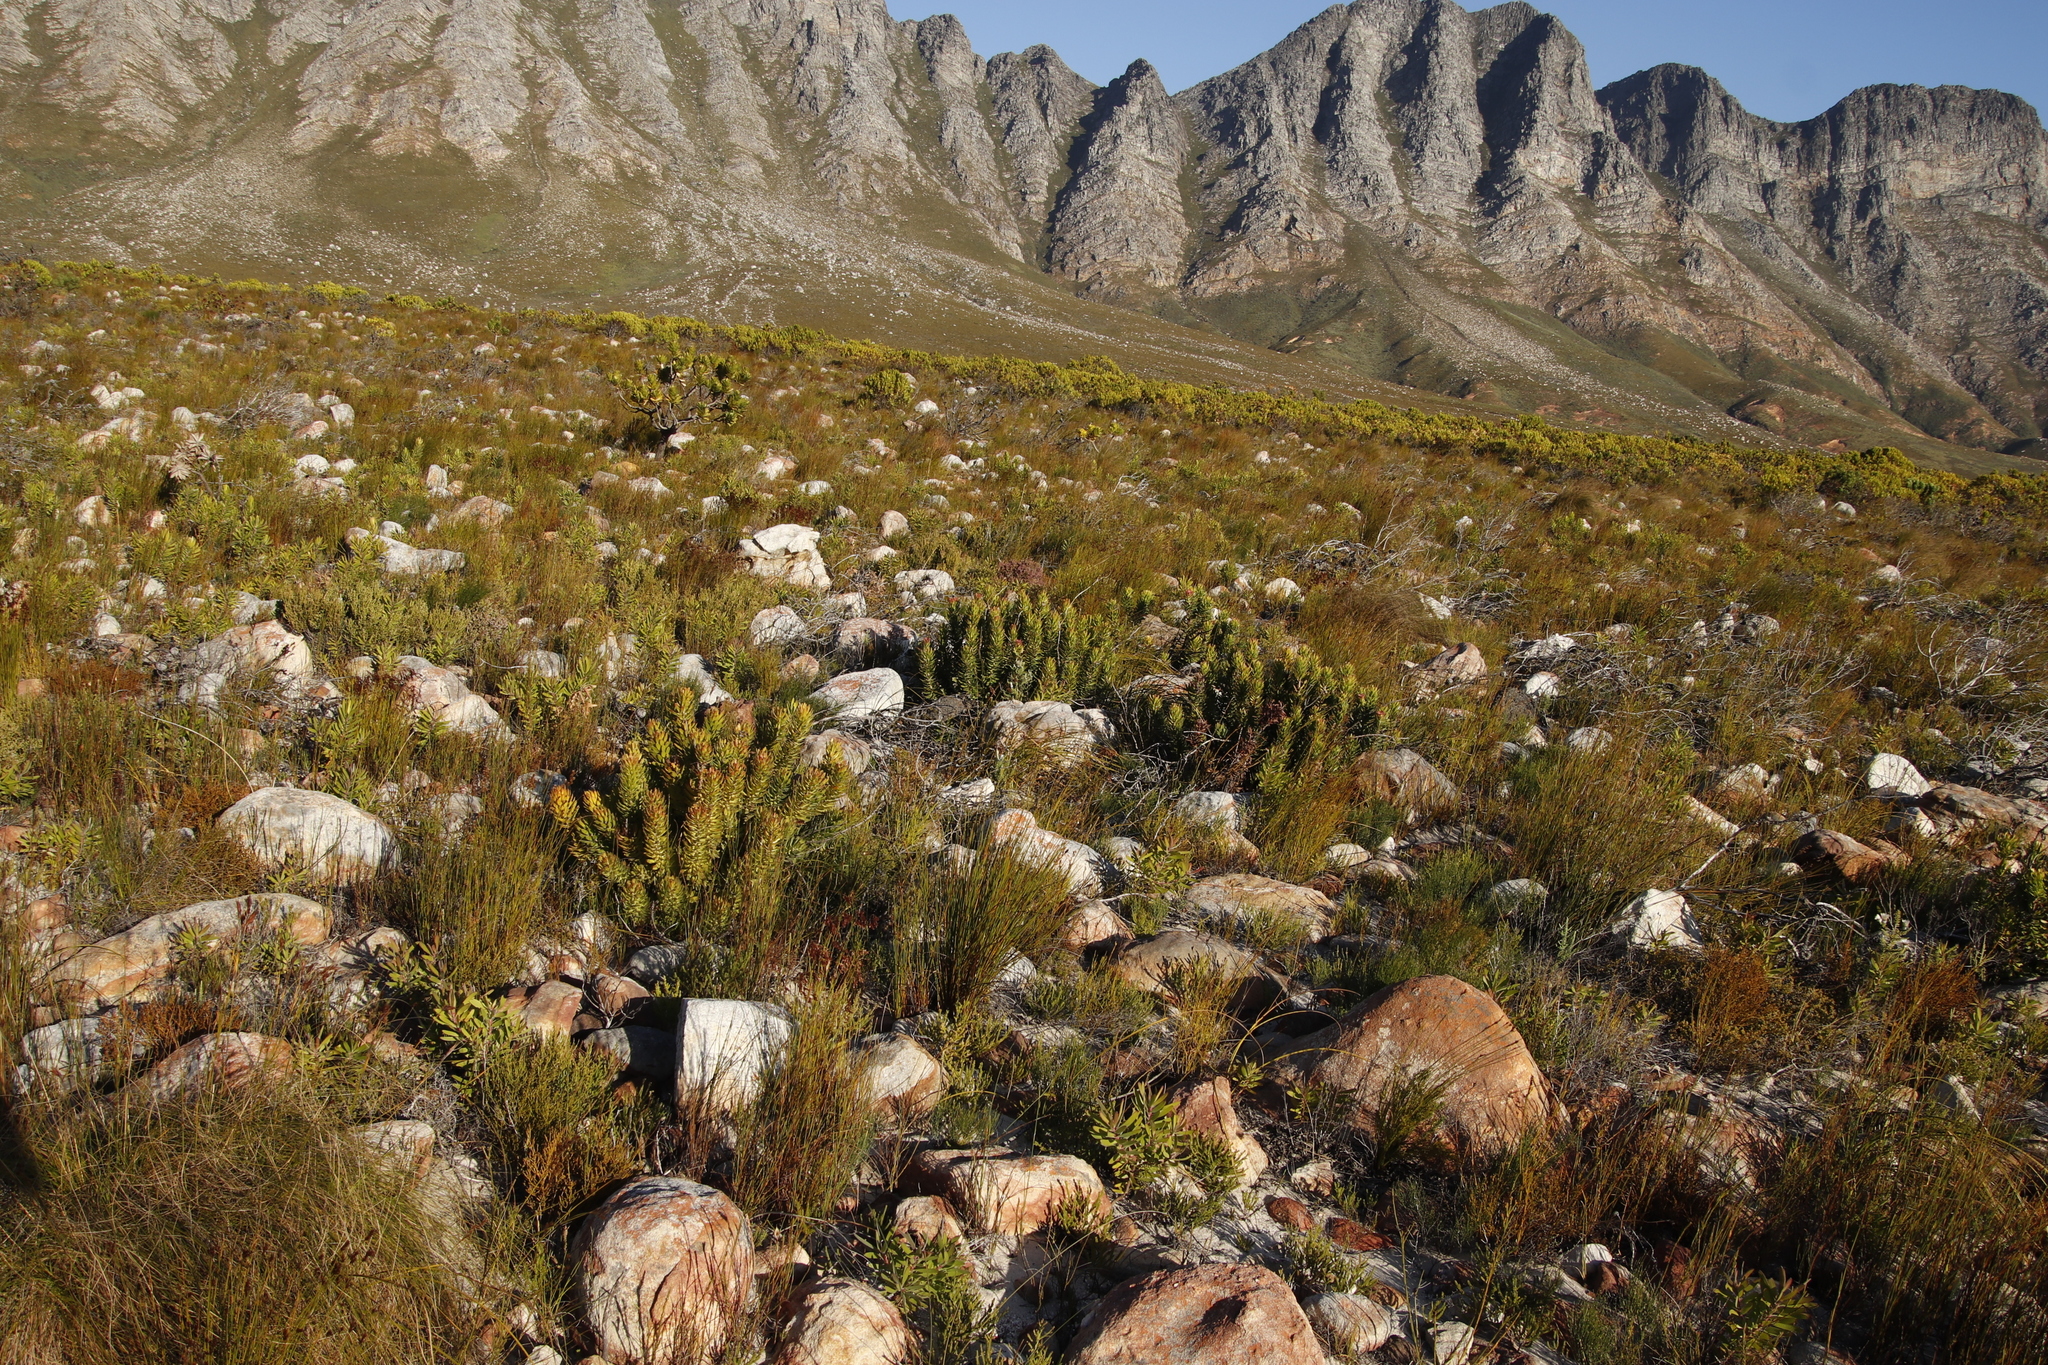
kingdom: Plantae
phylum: Tracheophyta
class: Magnoliopsida
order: Proteales
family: Proteaceae
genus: Mimetes
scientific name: Mimetes cucullatus
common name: Common pagoda
